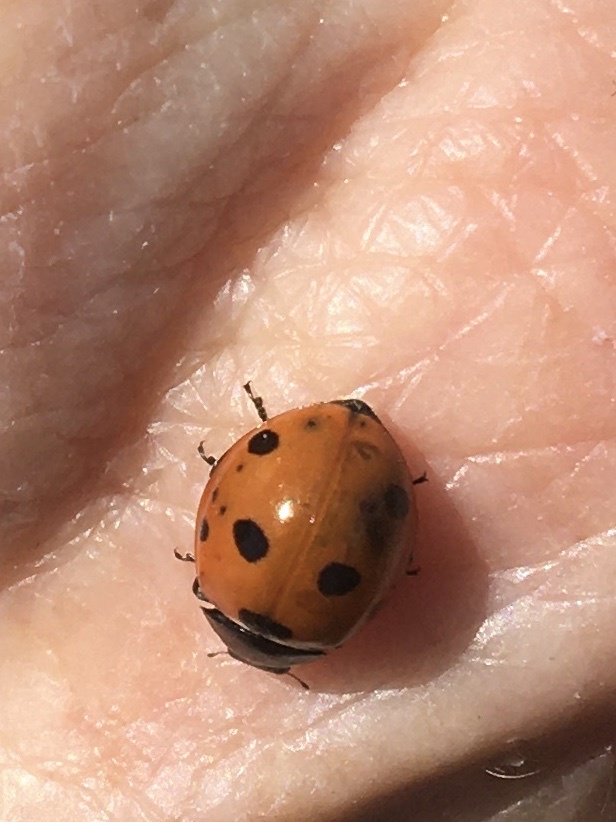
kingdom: Animalia
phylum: Arthropoda
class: Insecta
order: Coleoptera
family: Coccinellidae
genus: Coccinella
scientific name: Coccinella septempunctata
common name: Sevenspotted lady beetle
